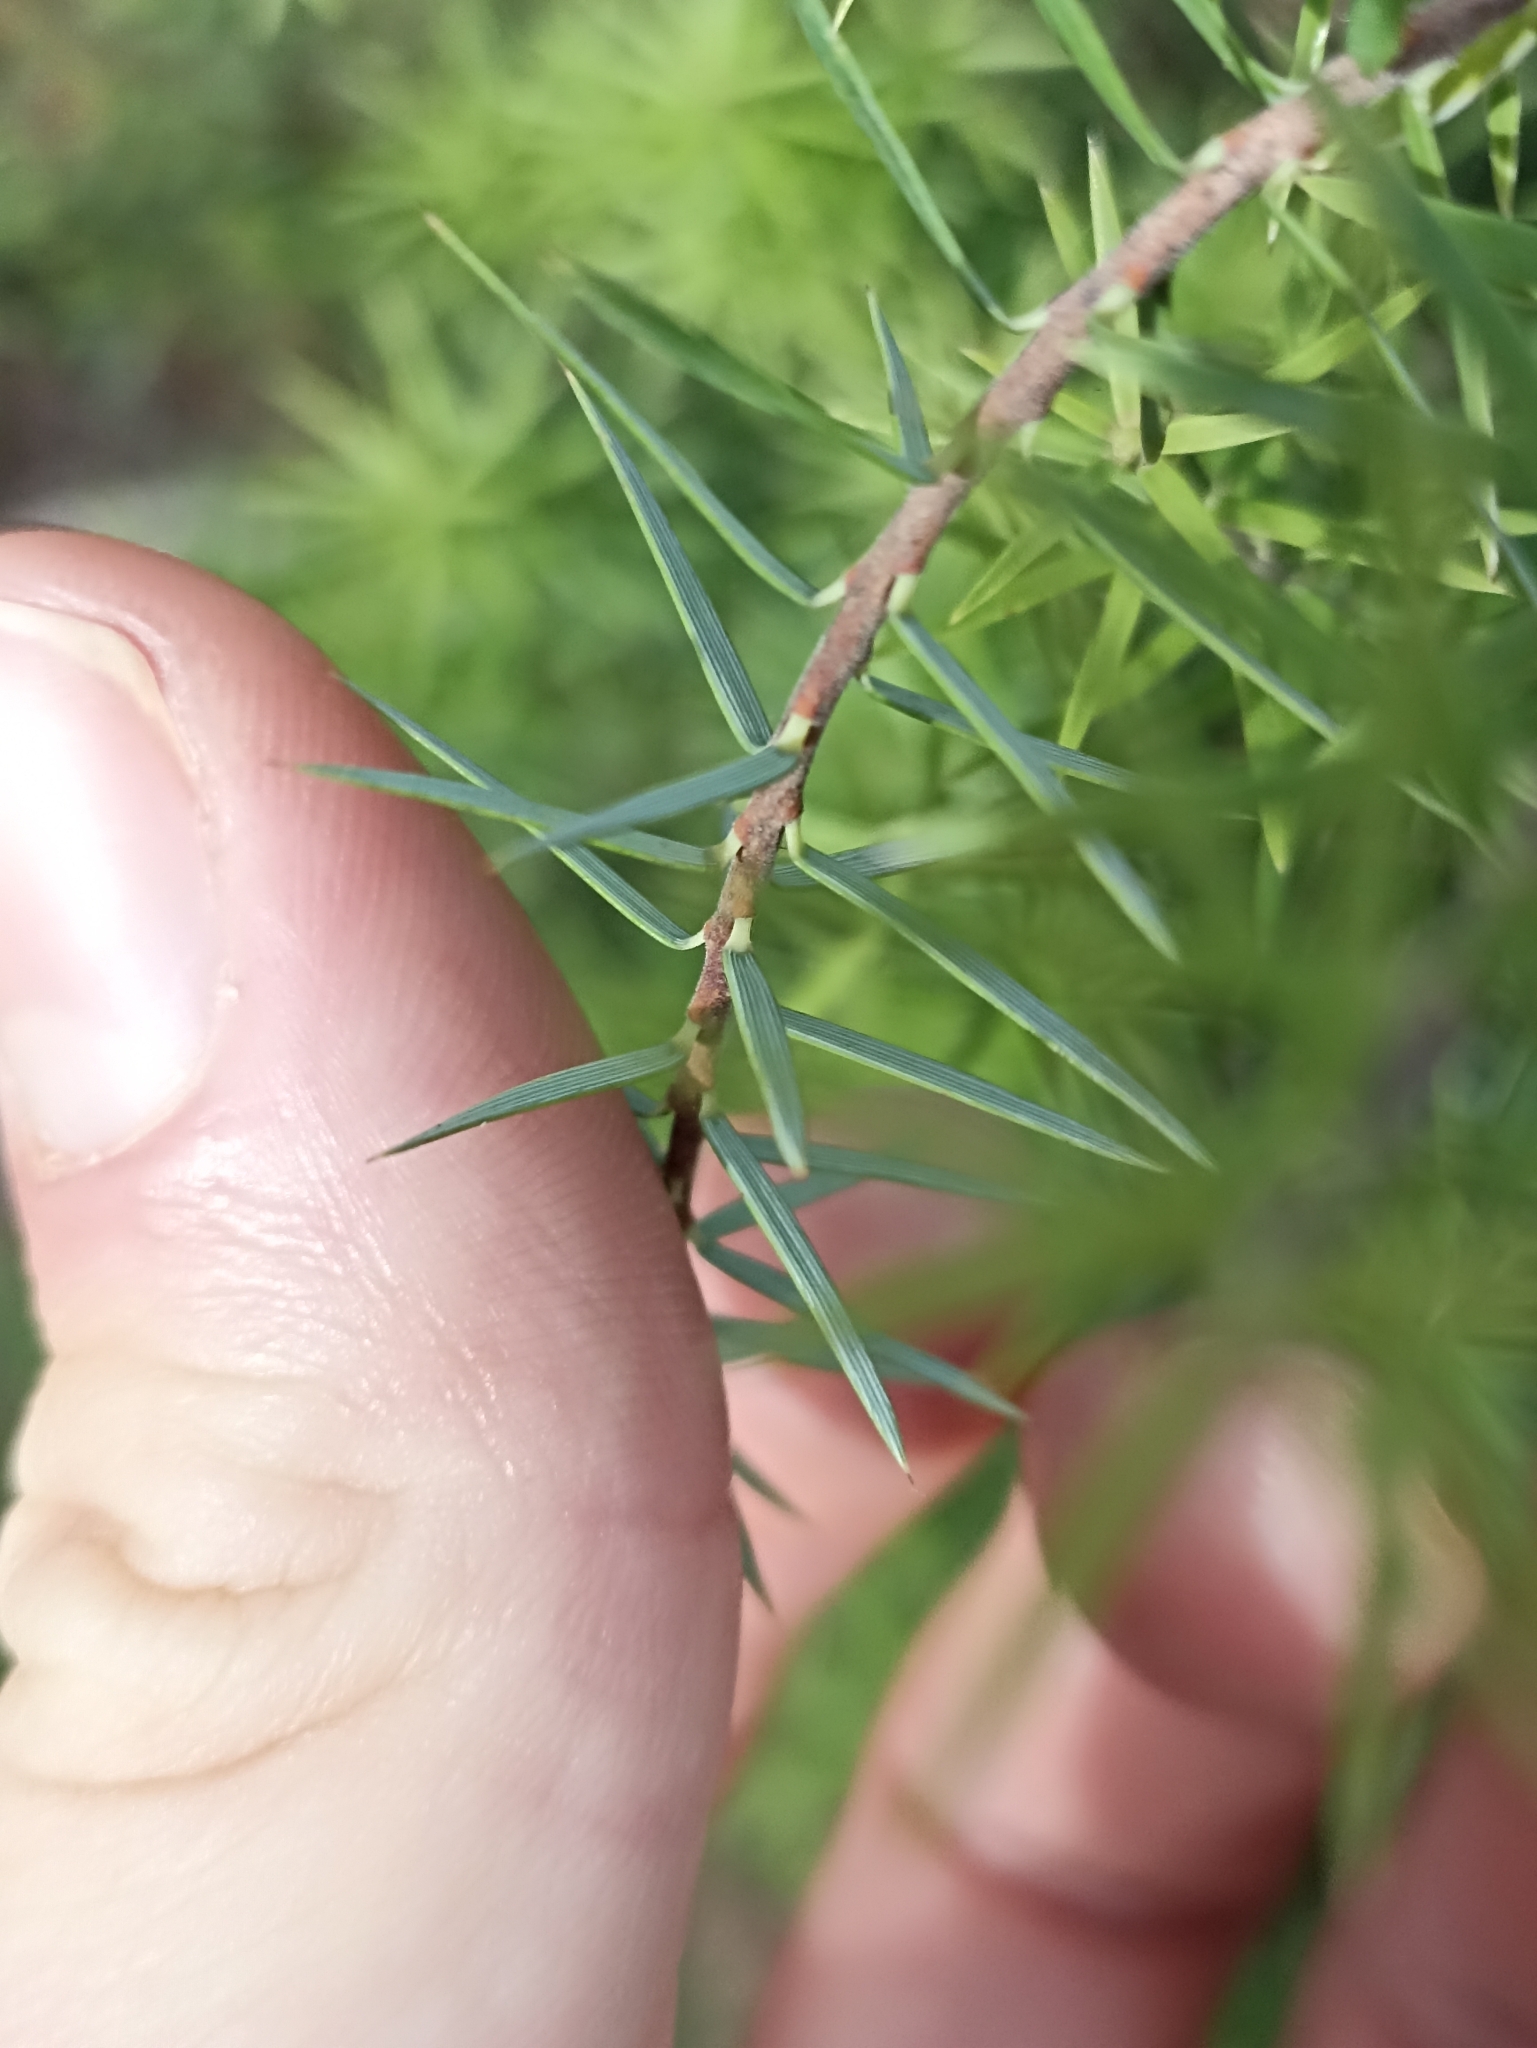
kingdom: Plantae
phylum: Tracheophyta
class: Magnoliopsida
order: Ericales
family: Ericaceae
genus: Leptecophylla
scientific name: Leptecophylla juniperina
